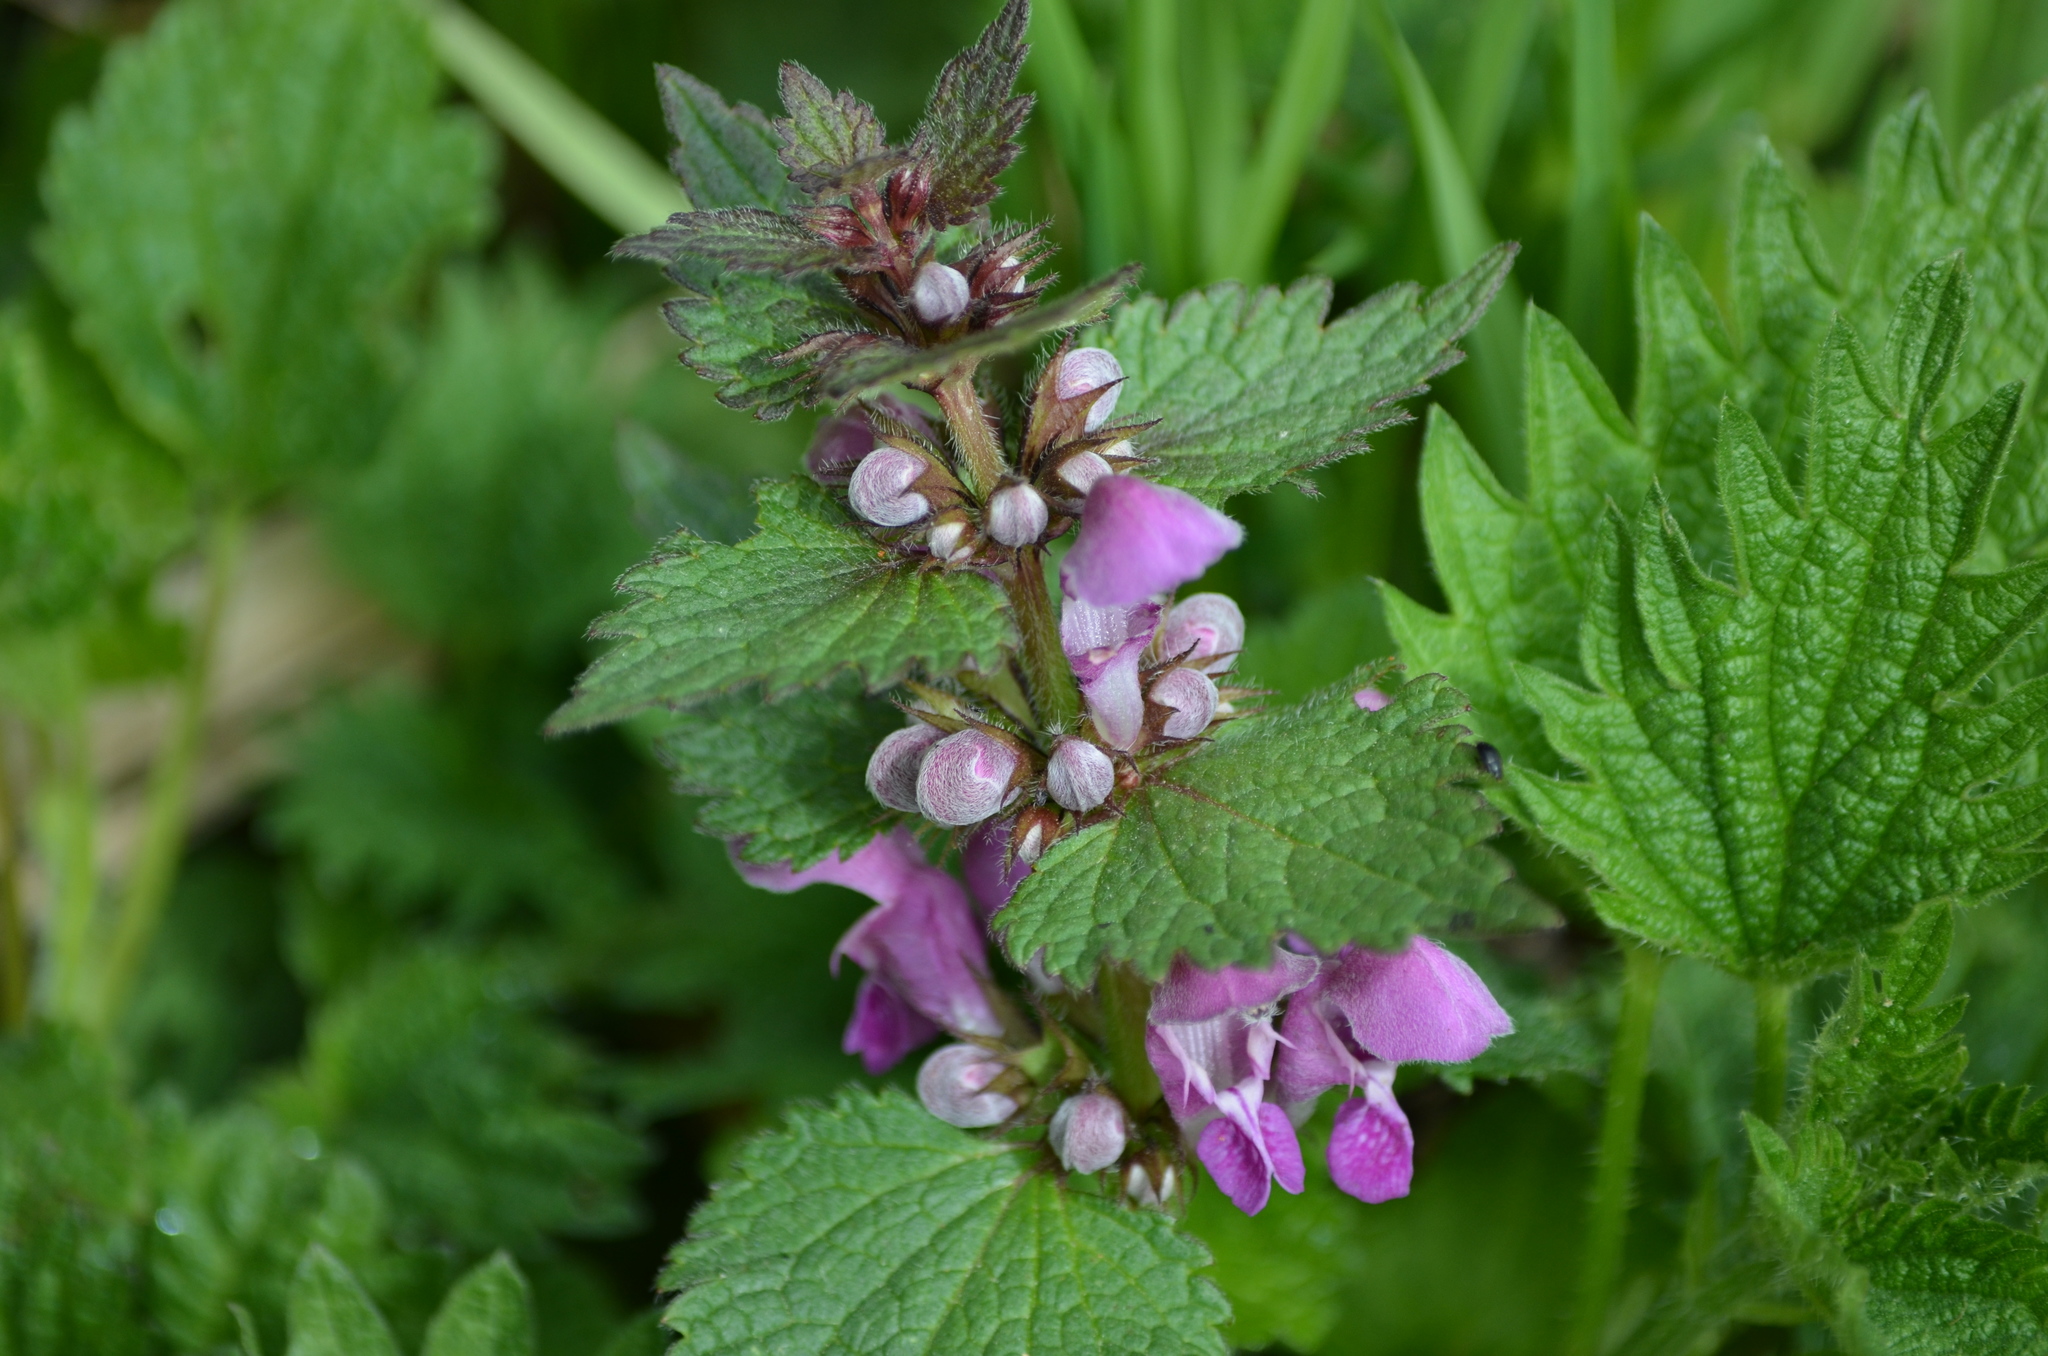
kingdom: Plantae
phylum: Tracheophyta
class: Magnoliopsida
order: Lamiales
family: Lamiaceae
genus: Lamium
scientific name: Lamium maculatum
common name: Spotted dead-nettle
